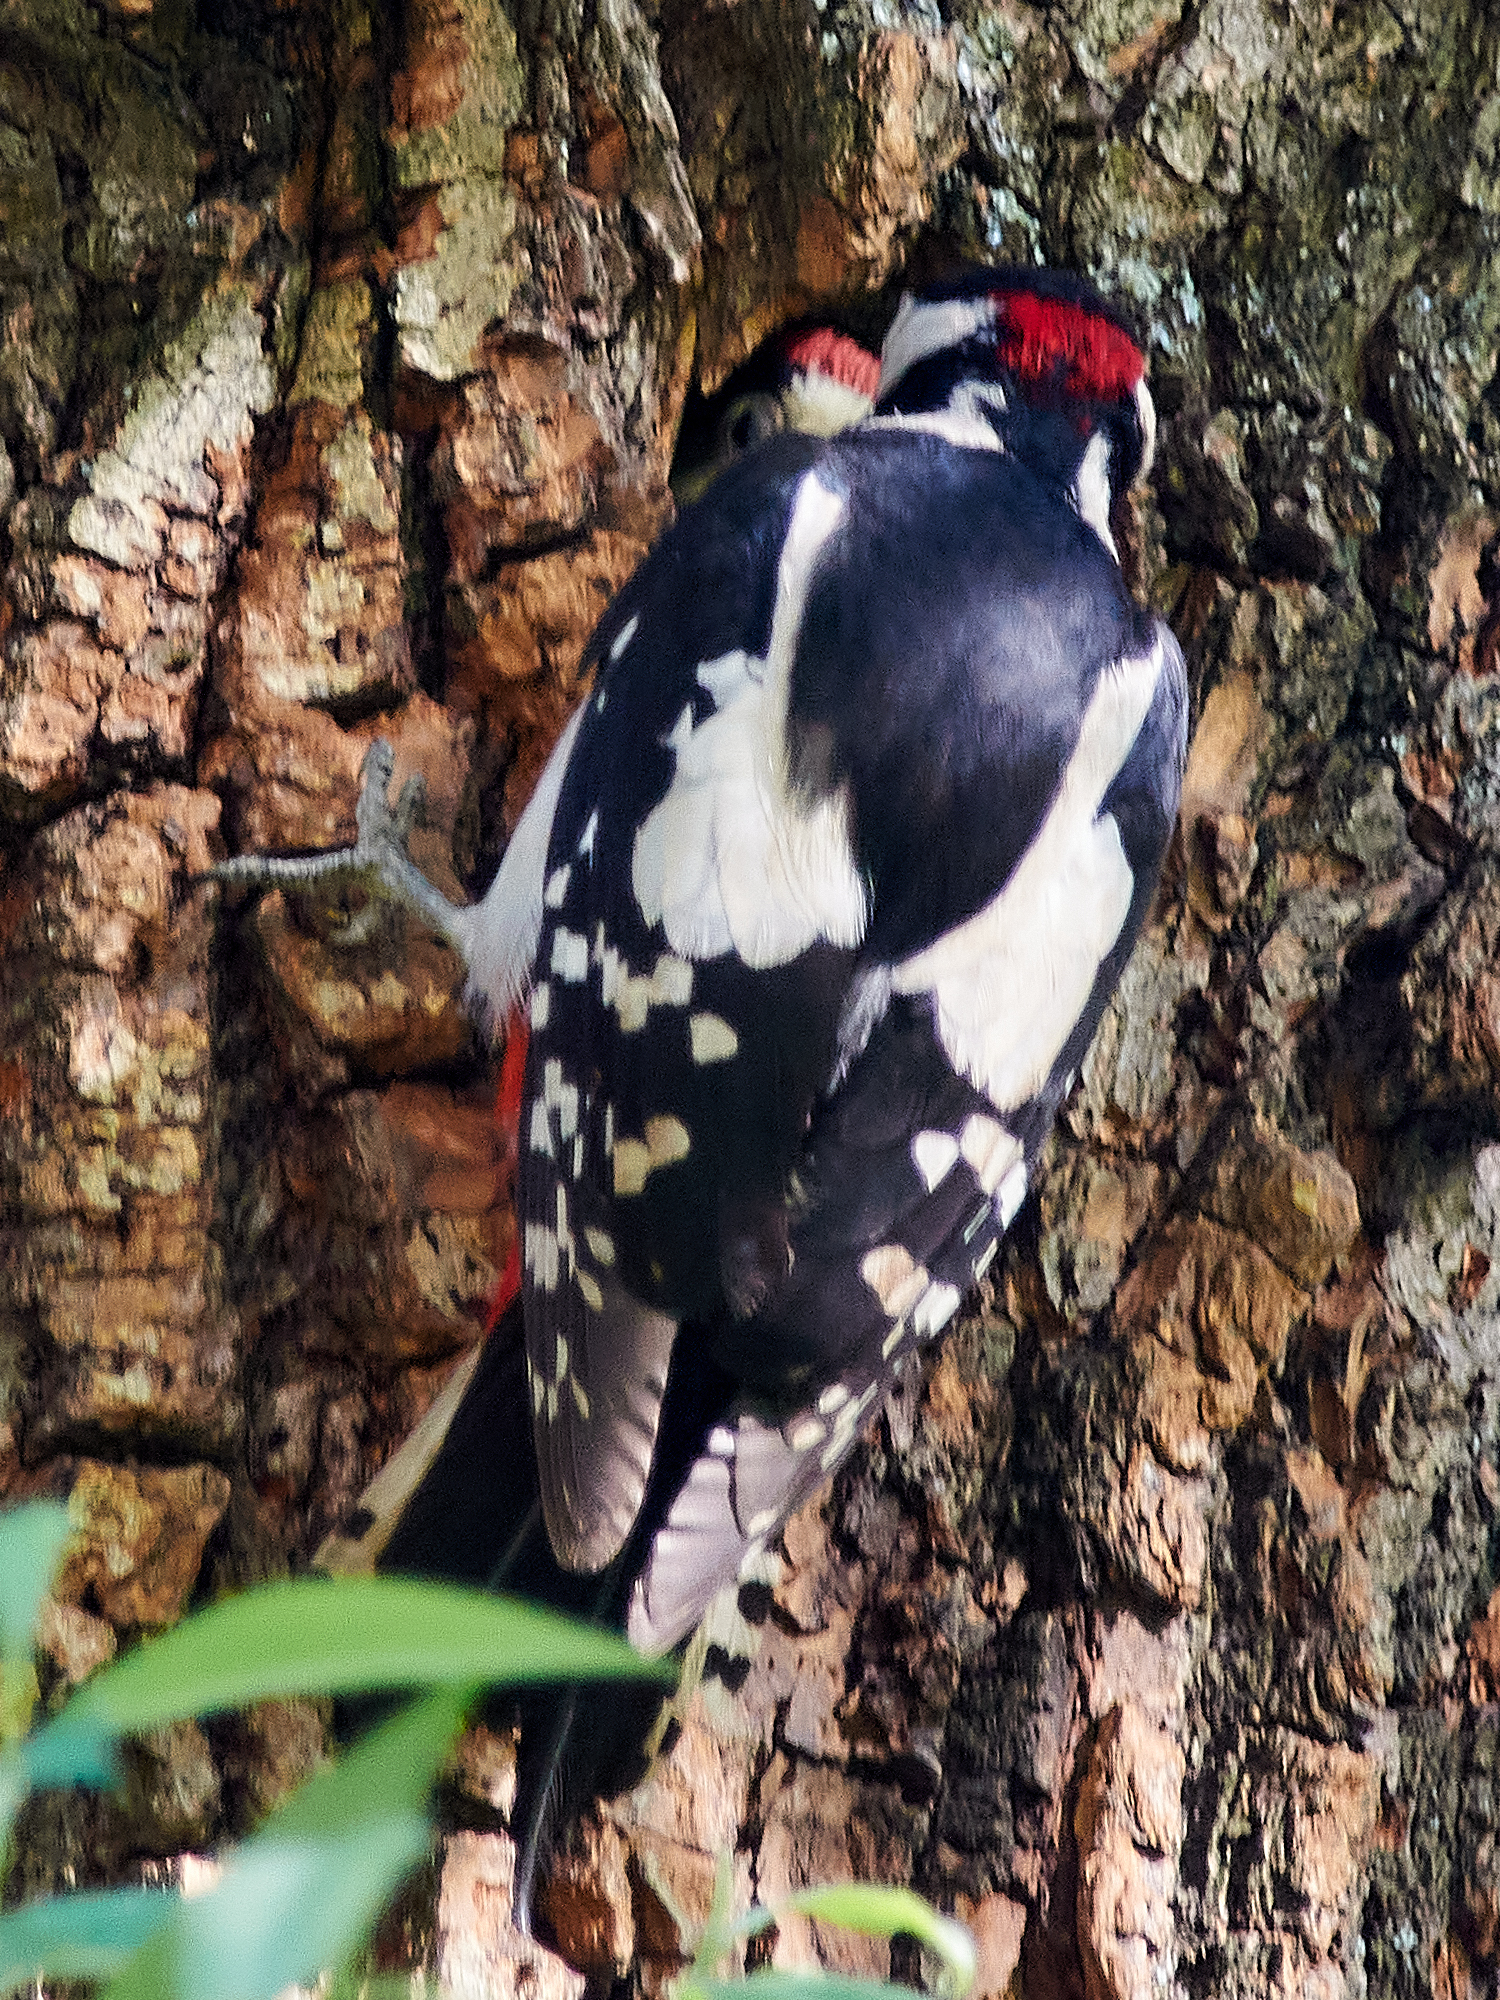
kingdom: Animalia
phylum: Chordata
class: Aves
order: Piciformes
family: Picidae
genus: Dendrocopos
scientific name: Dendrocopos major
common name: Great spotted woodpecker
